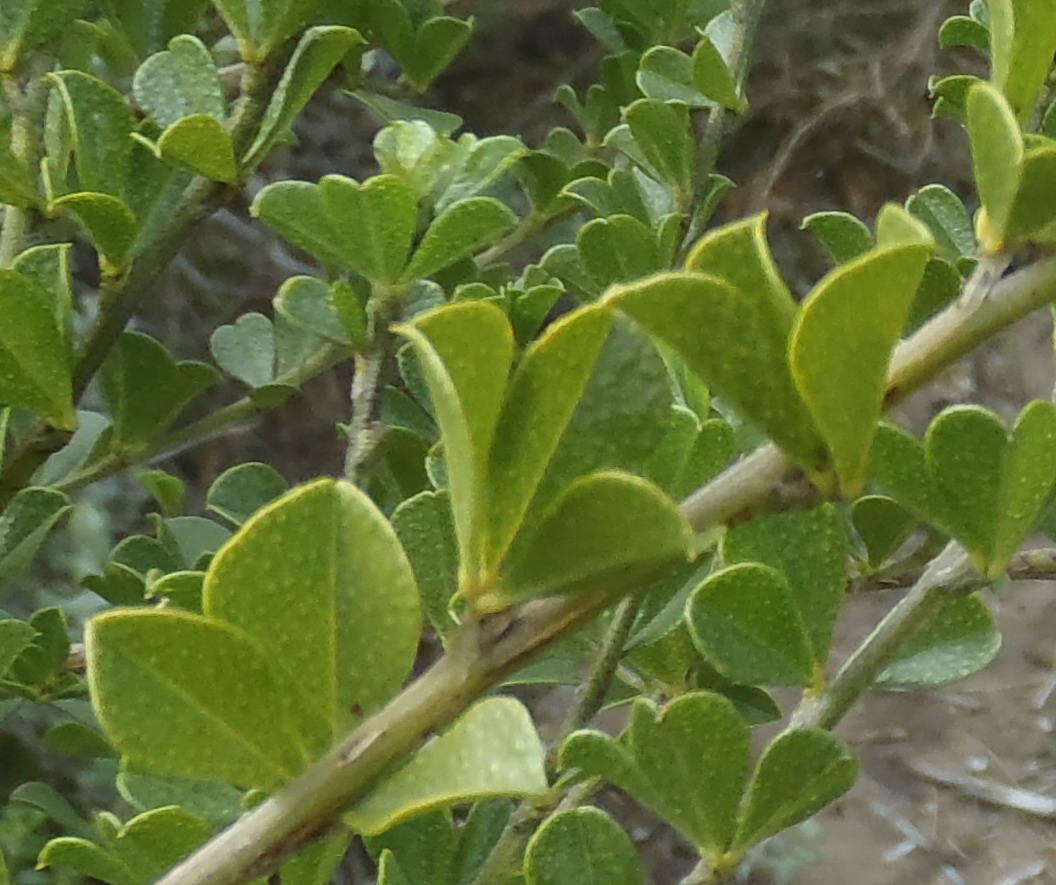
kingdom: Plantae
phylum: Tracheophyta
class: Magnoliopsida
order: Fabales
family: Fabaceae
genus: Psoralea
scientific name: Psoralea bracteolata
